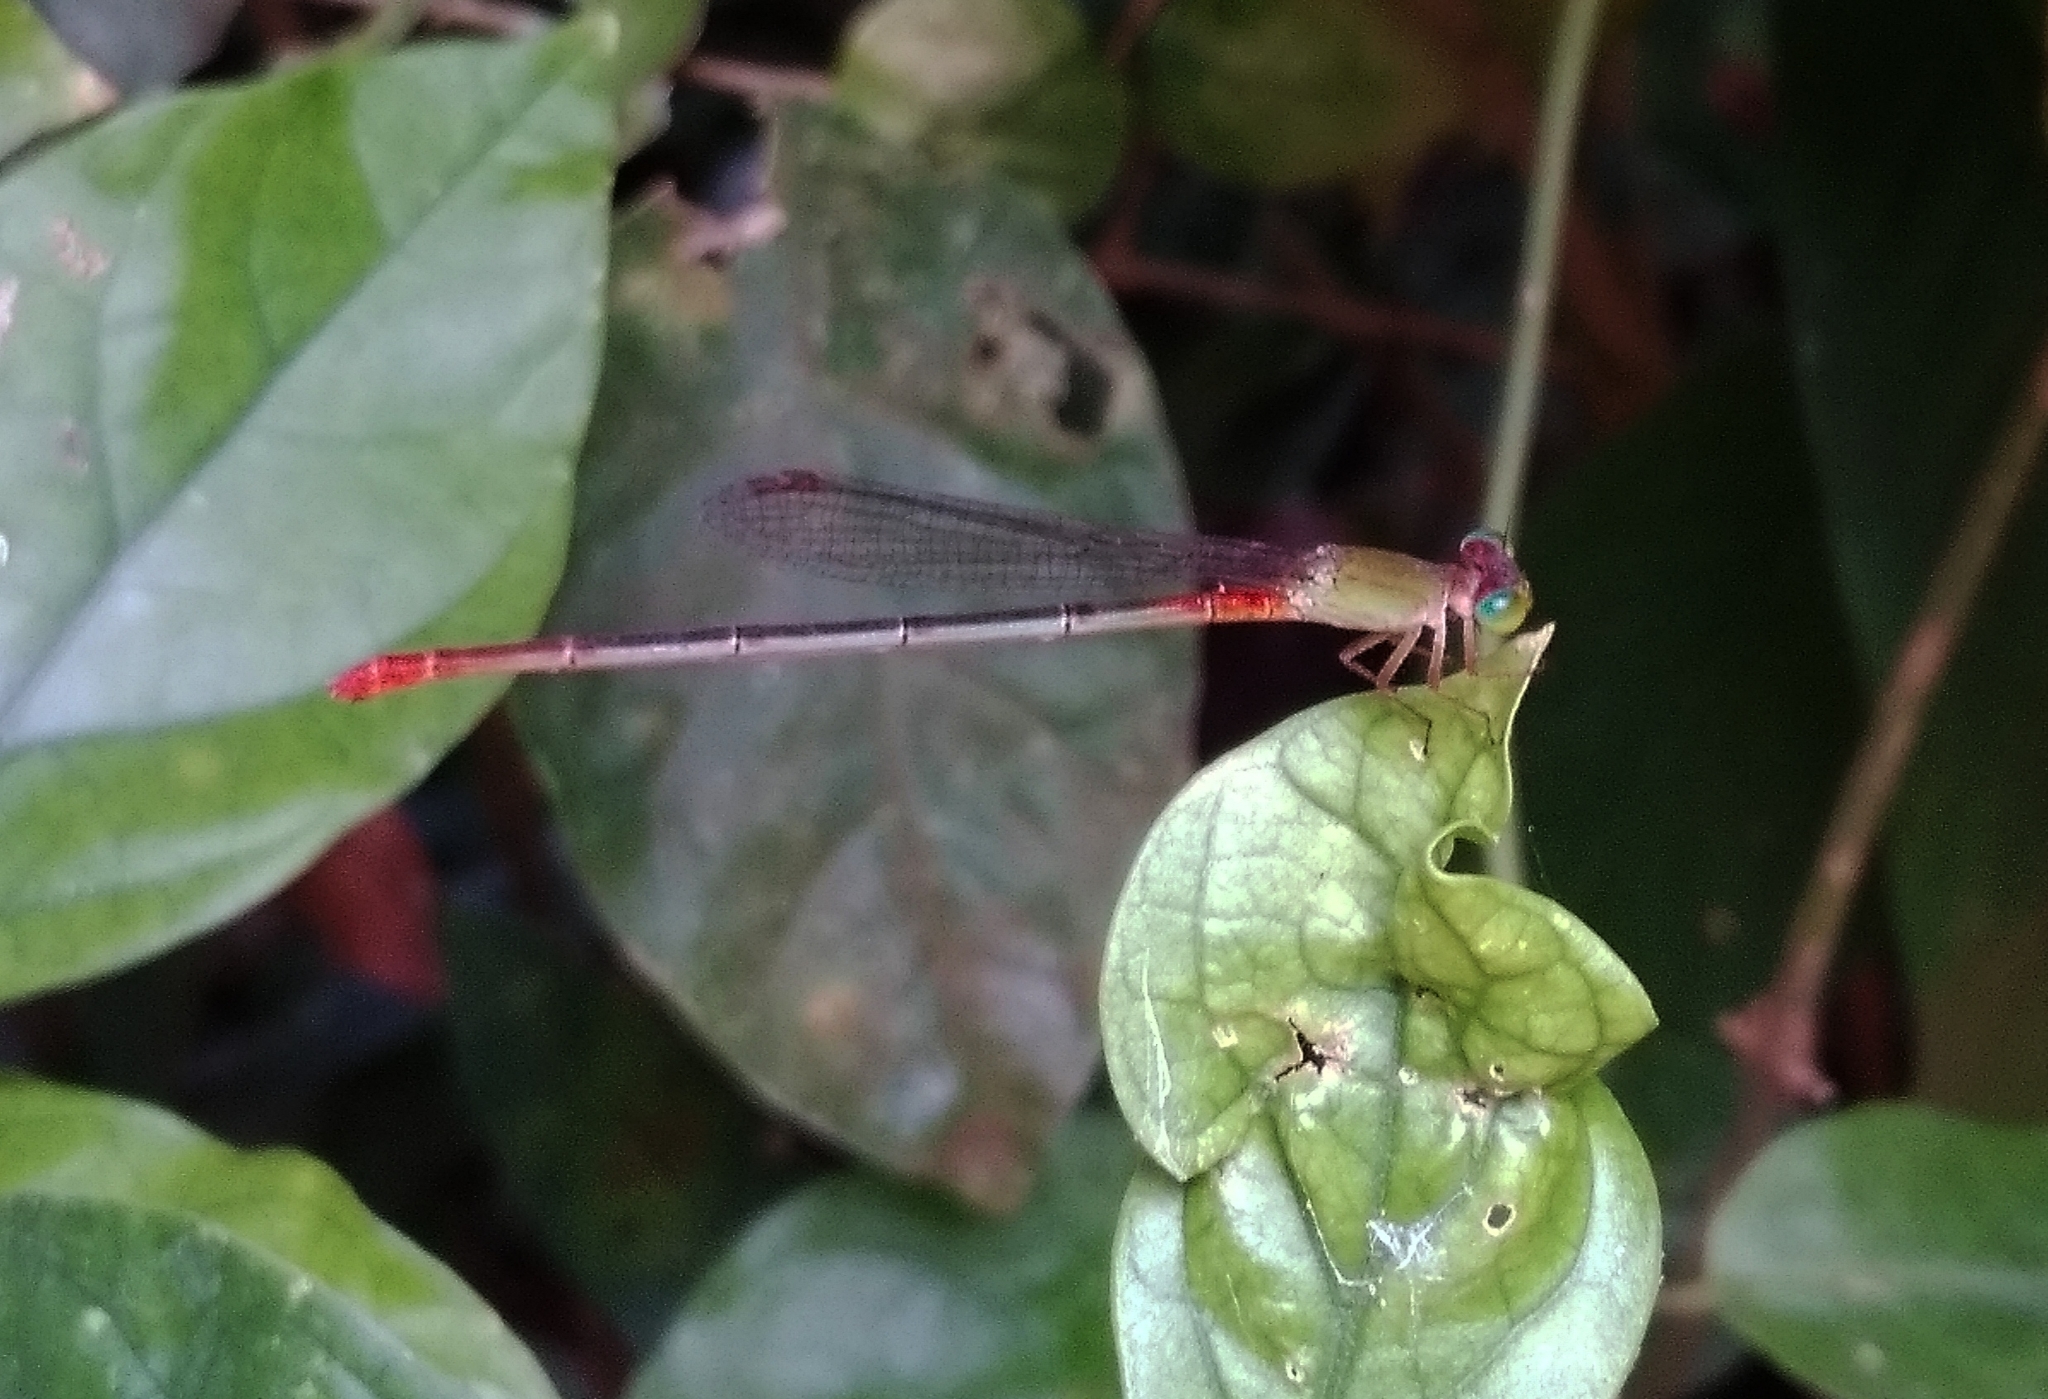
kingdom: Animalia
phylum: Arthropoda
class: Insecta
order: Odonata
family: Coenagrionidae
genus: Ceriagrion
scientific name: Ceriagrion cerinorubellum
